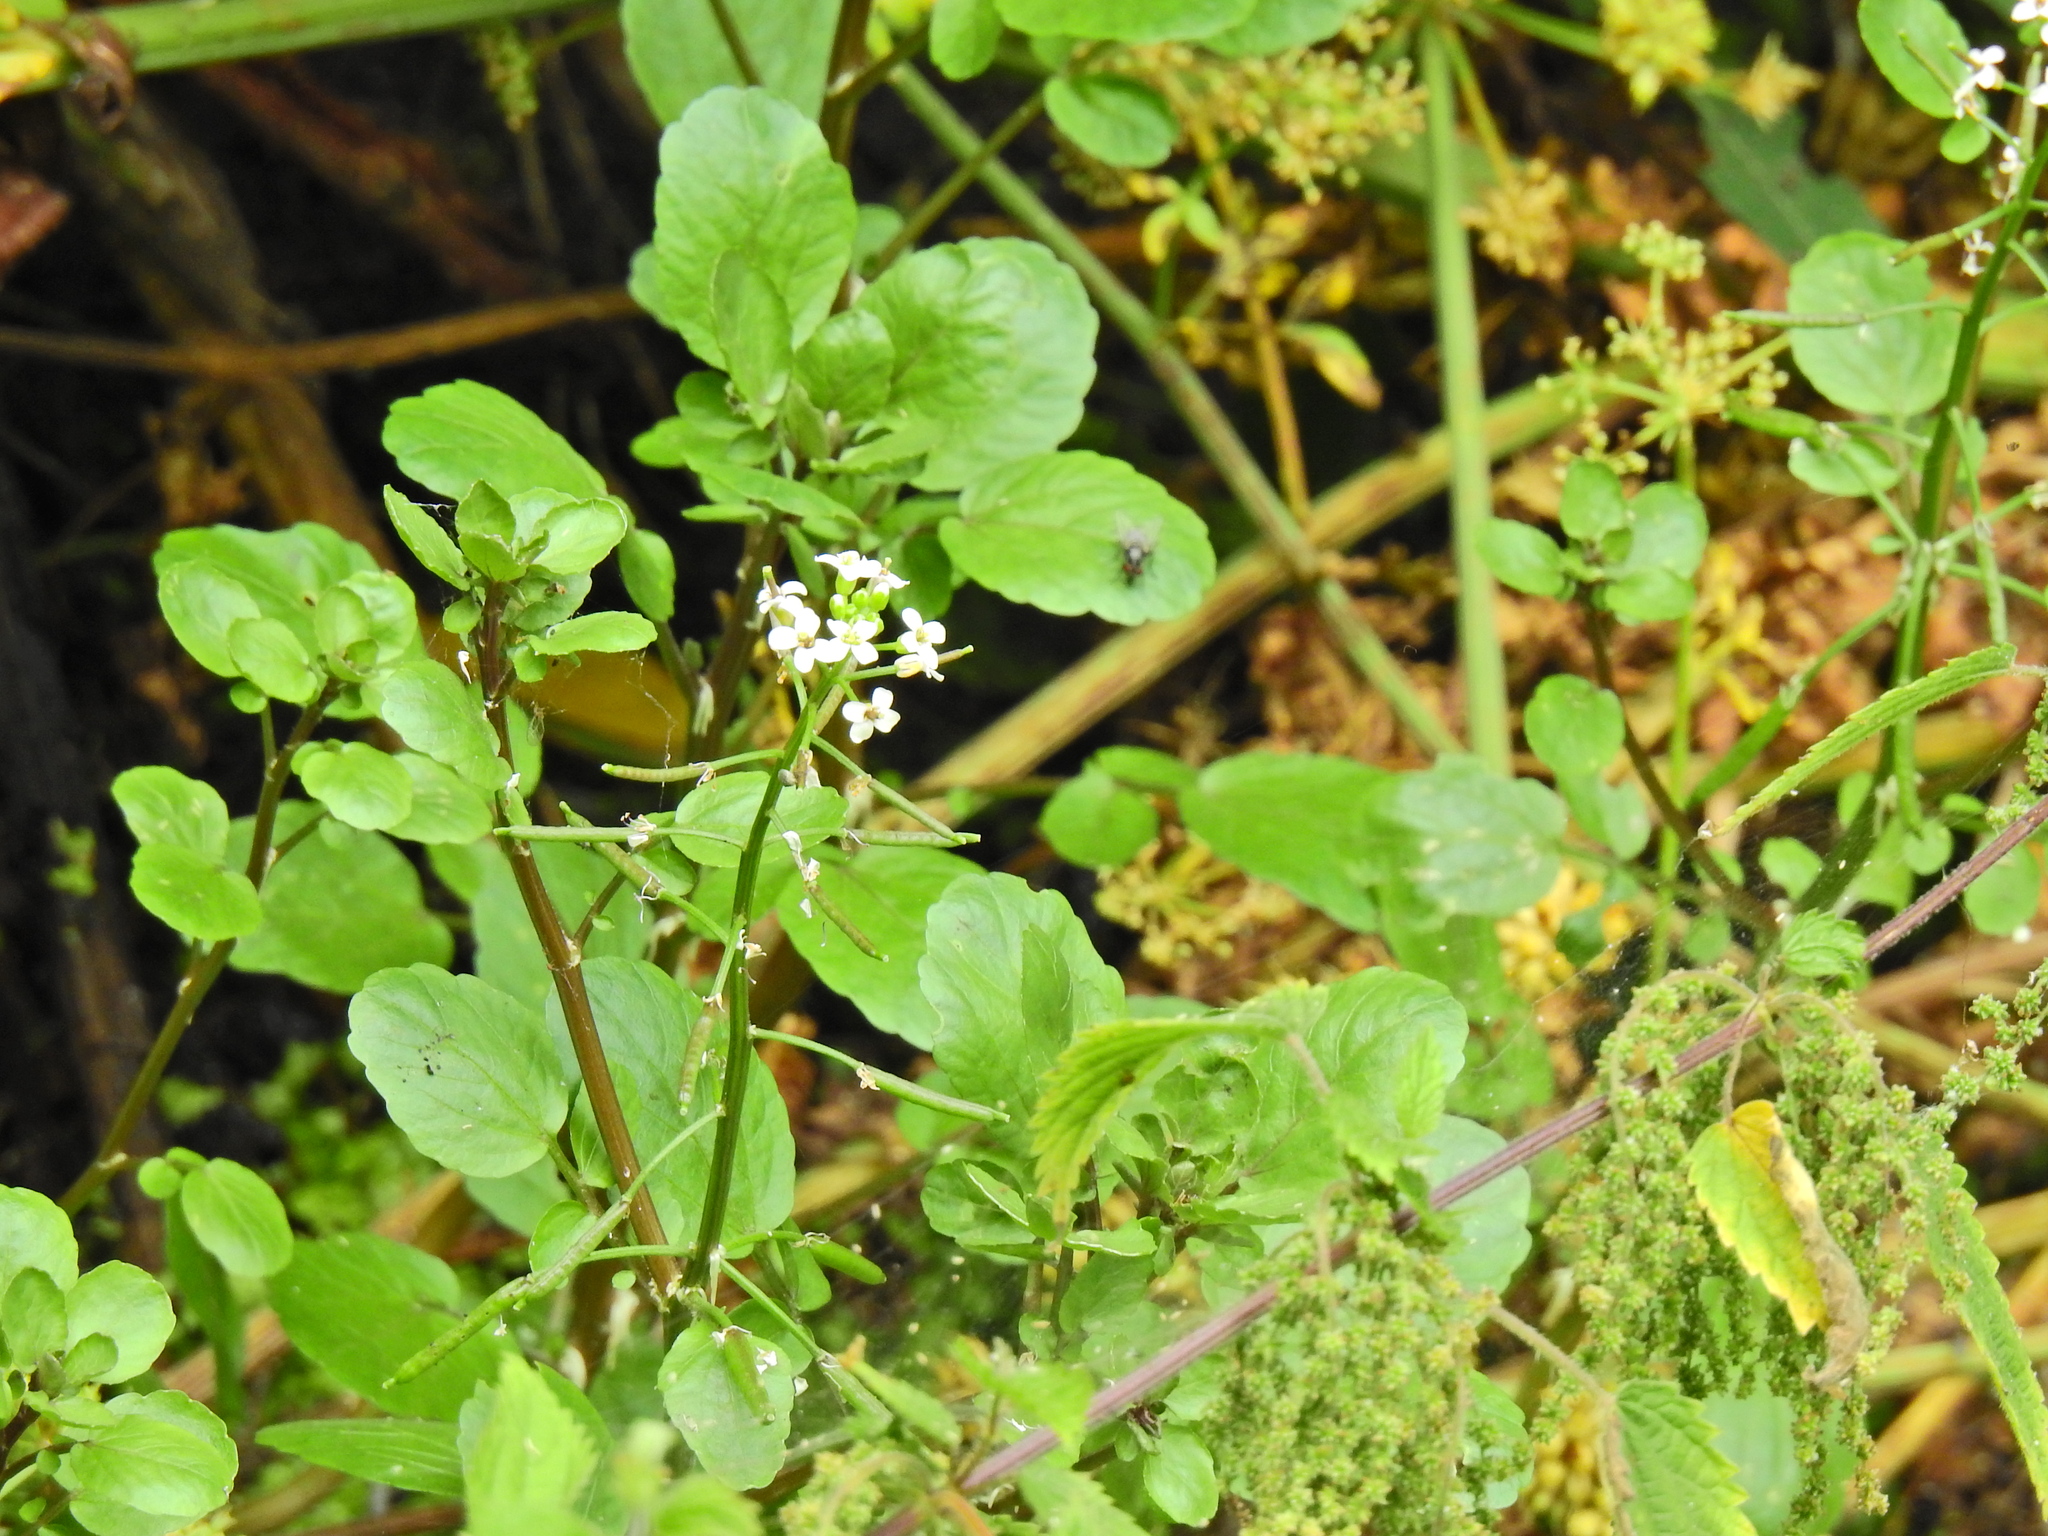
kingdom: Plantae
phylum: Tracheophyta
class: Magnoliopsida
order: Brassicales
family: Brassicaceae
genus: Nasturtium
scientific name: Nasturtium officinale
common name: Watercress
